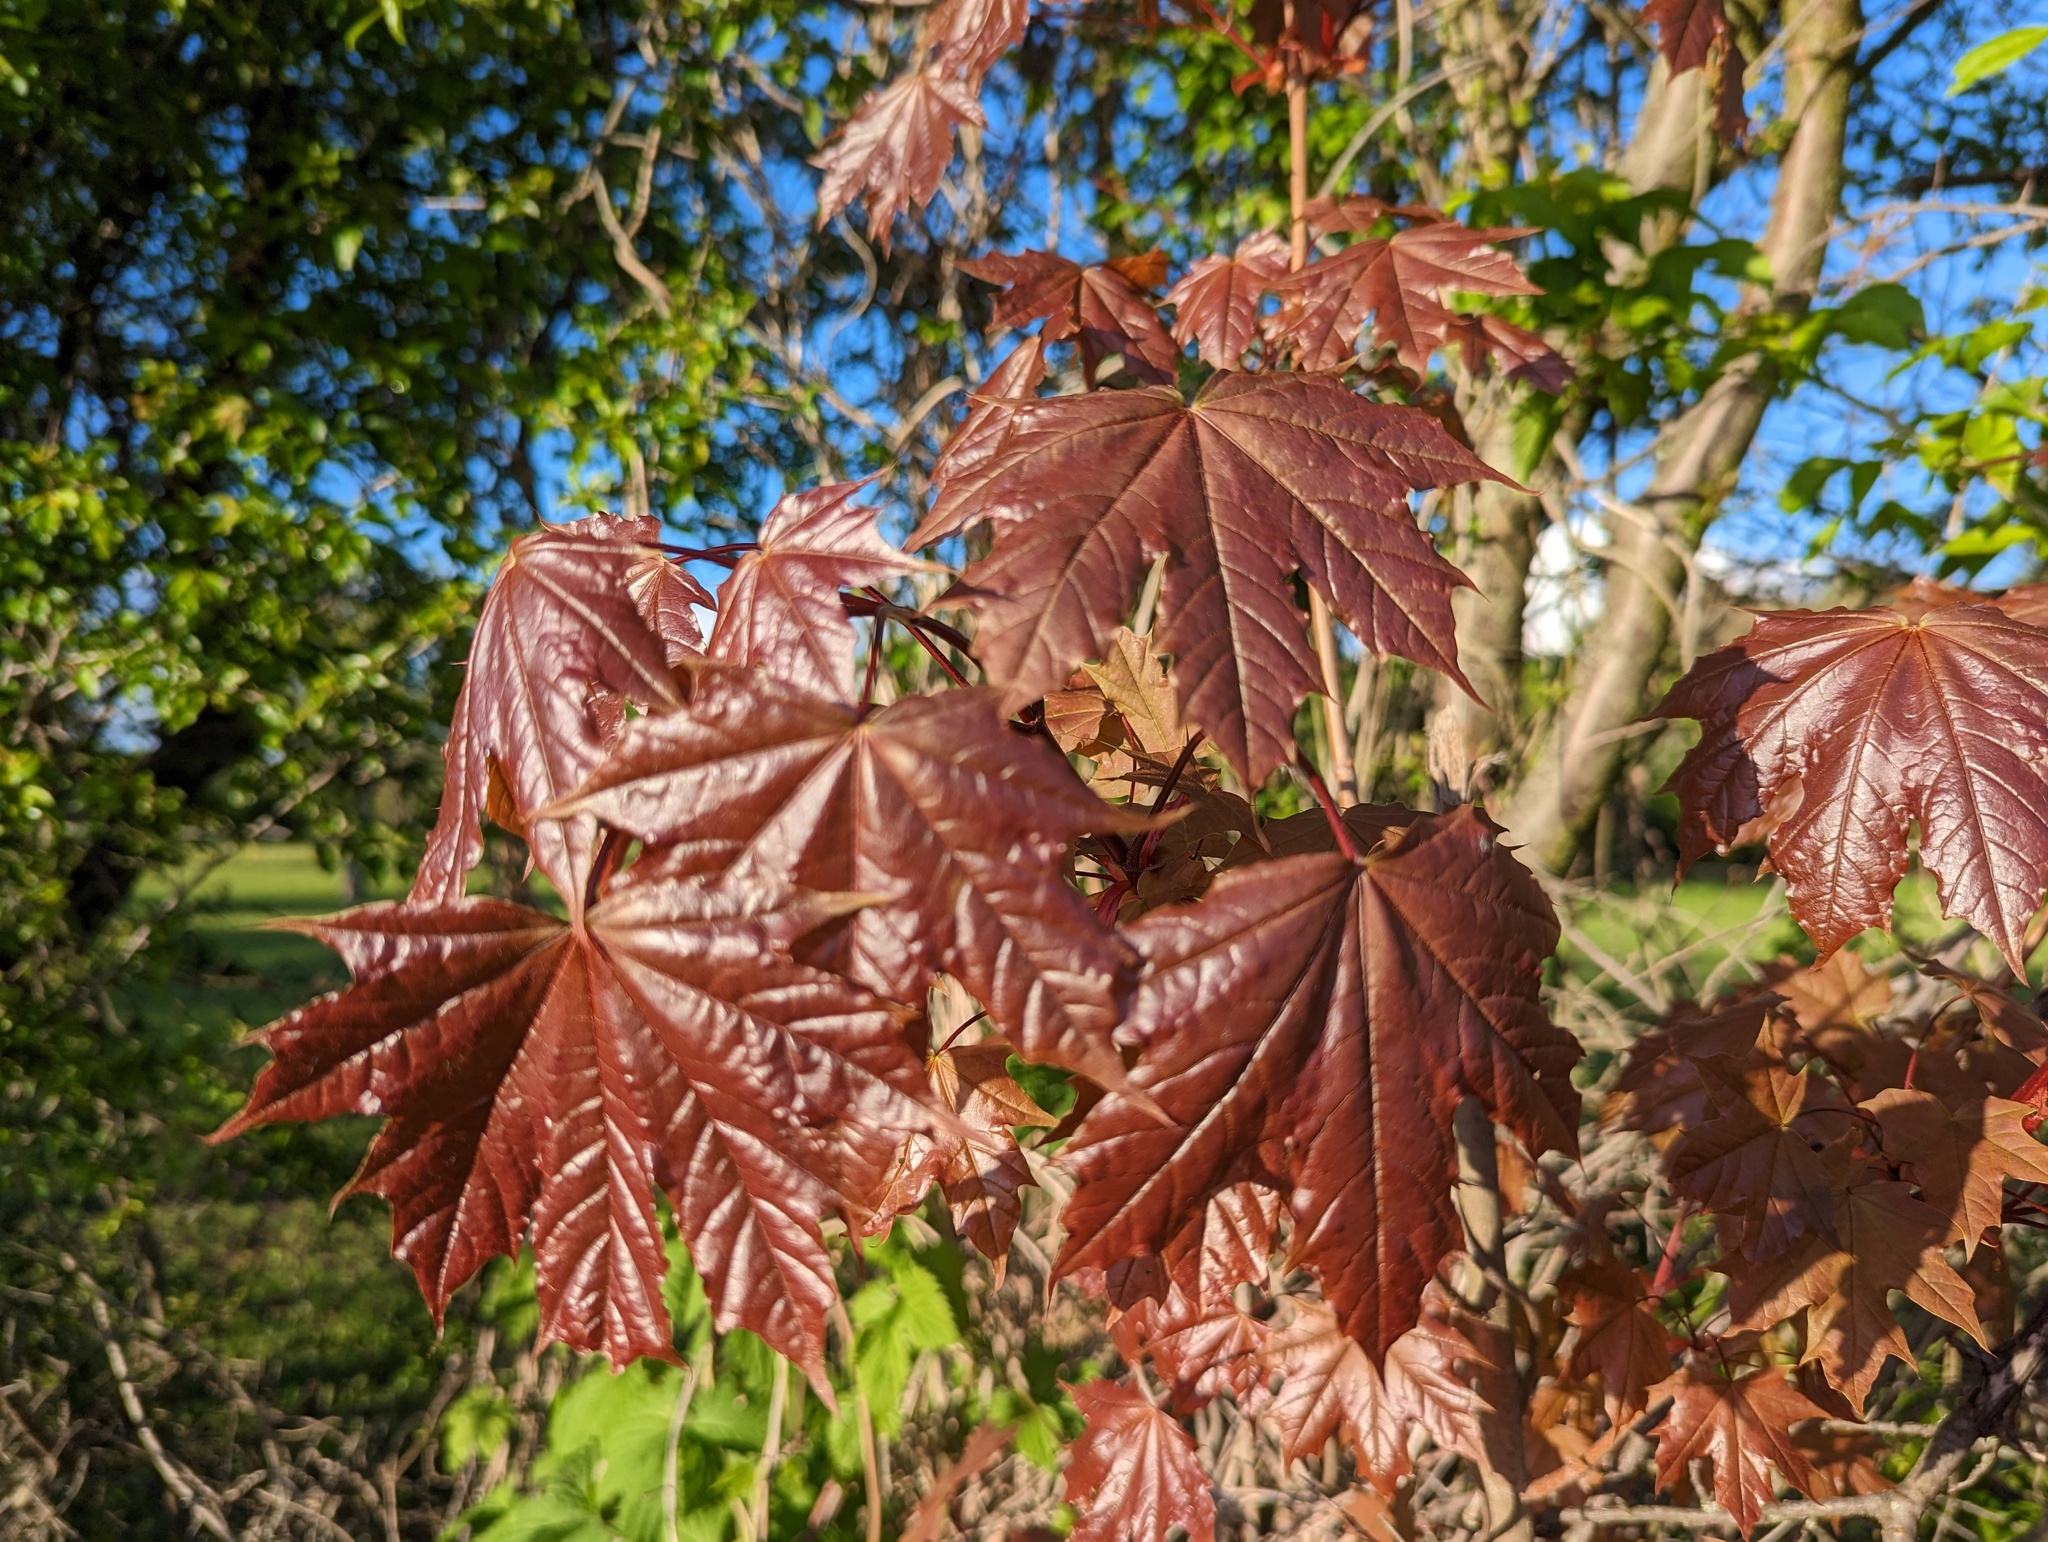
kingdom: Plantae
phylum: Tracheophyta
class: Magnoliopsida
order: Sapindales
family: Sapindaceae
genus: Acer
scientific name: Acer platanoides
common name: Norway maple
